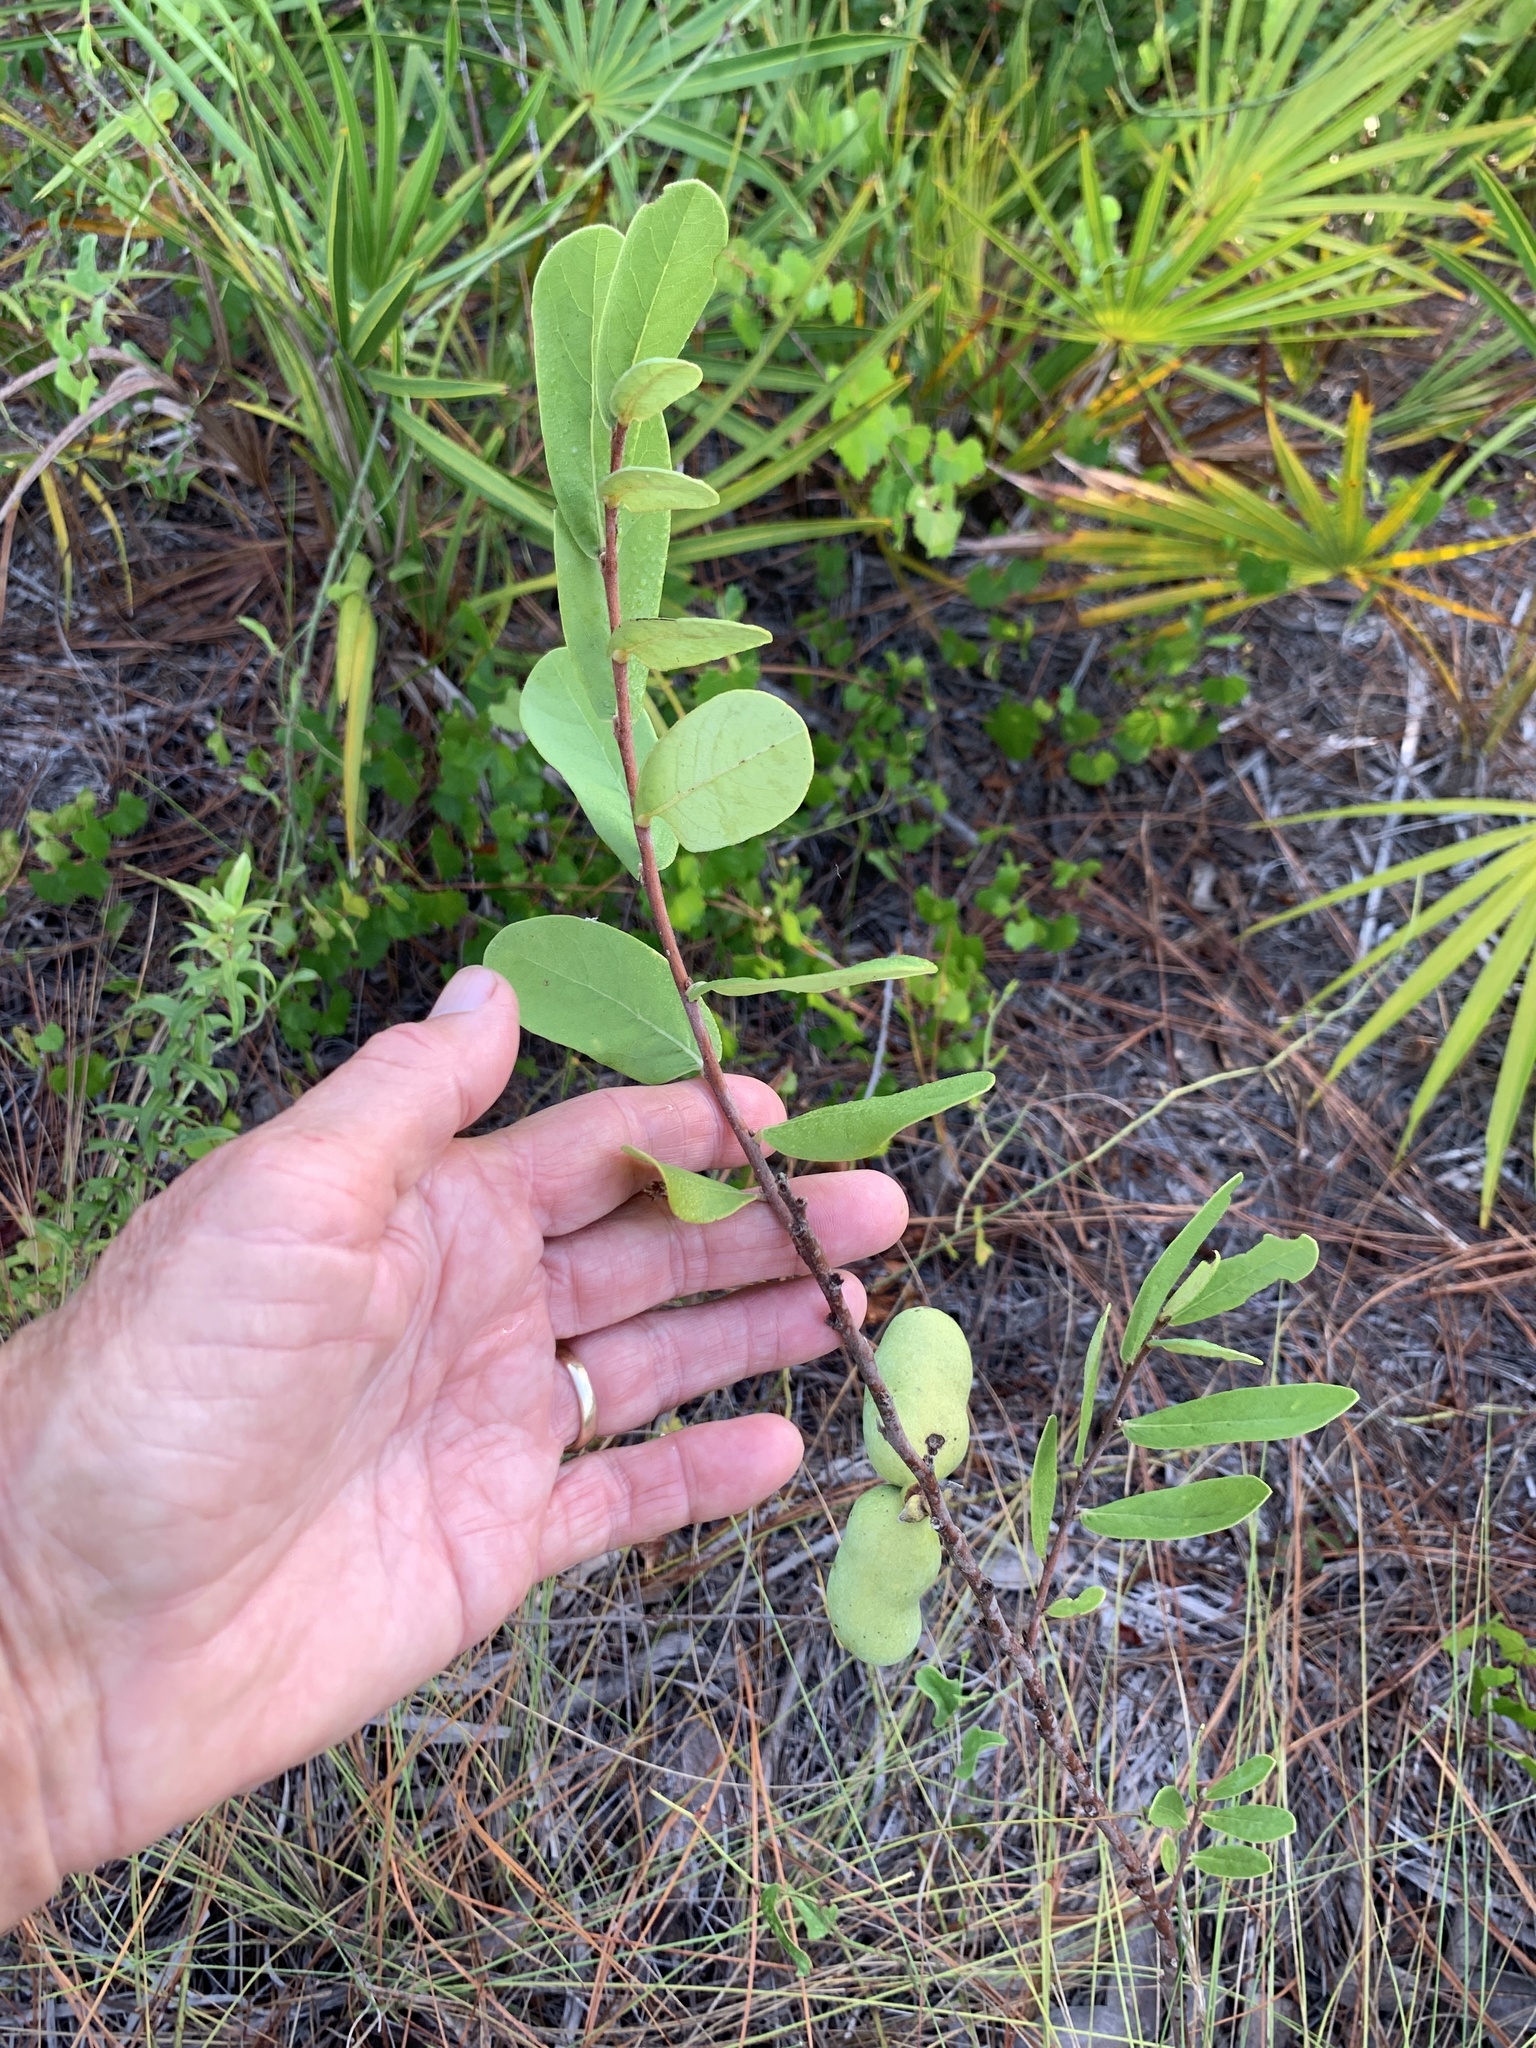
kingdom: Plantae
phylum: Tracheophyta
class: Magnoliopsida
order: Magnoliales
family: Annonaceae
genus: Asimina
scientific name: Asimina reticulata
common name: Flag pawpaw
